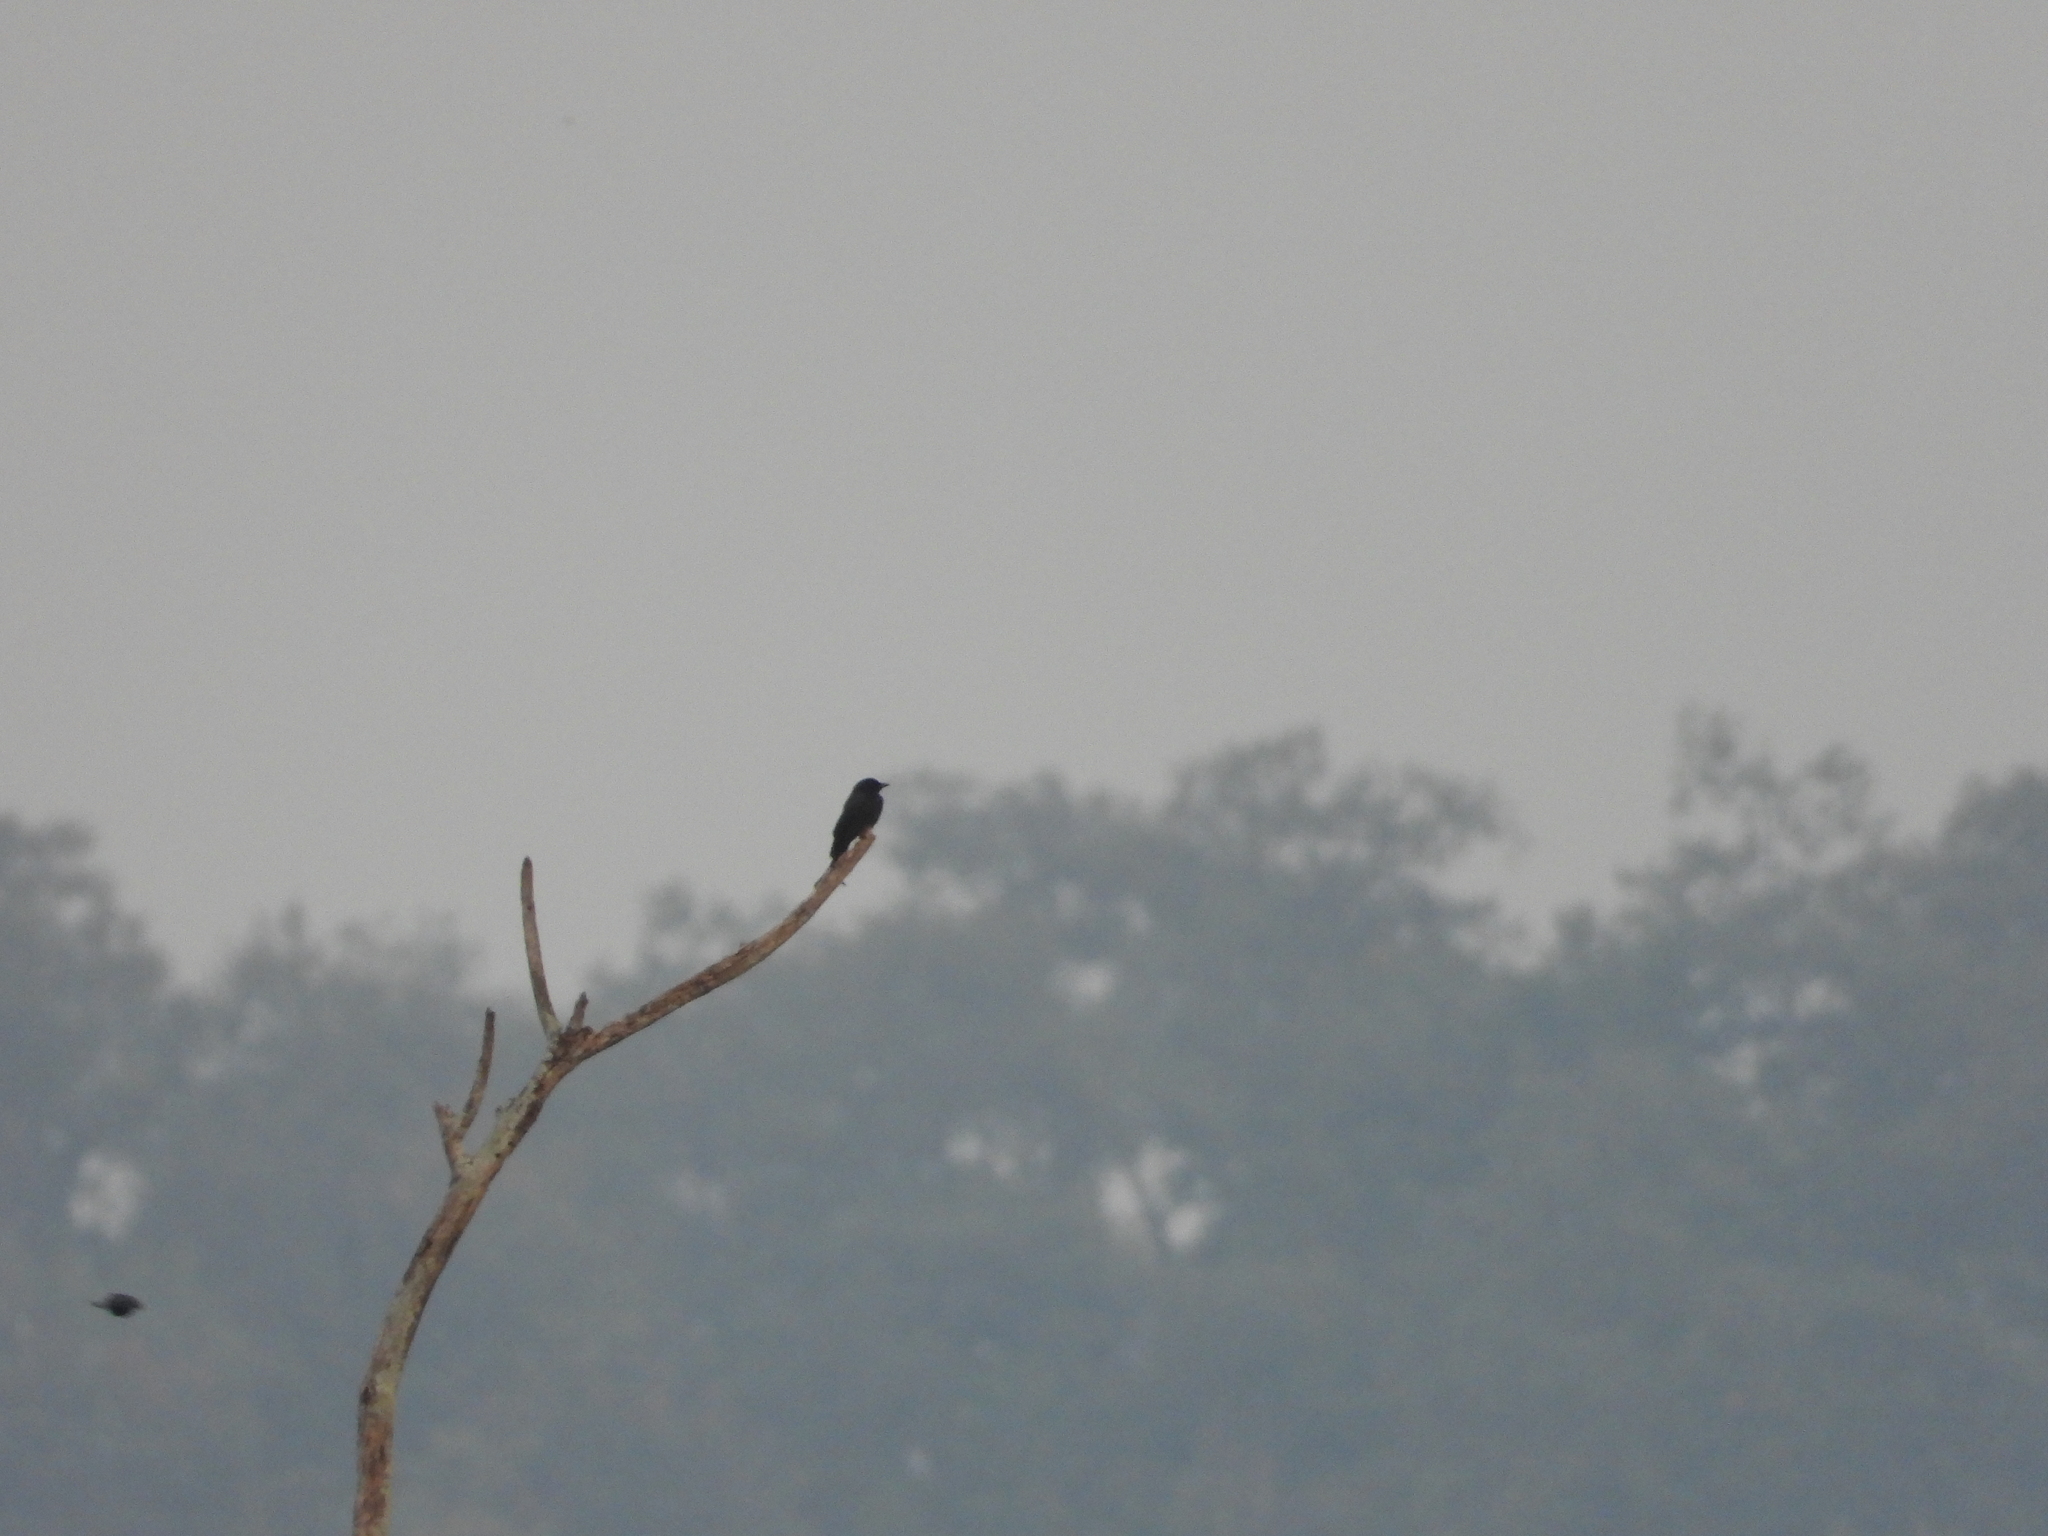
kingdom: Animalia
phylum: Chordata
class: Aves
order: Passeriformes
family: Dicruridae
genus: Dicrurus
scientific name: Dicrurus macrocercus
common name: Black drongo
